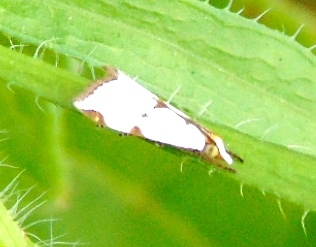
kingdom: Animalia
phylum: Arthropoda
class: Insecta
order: Lepidoptera
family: Crambidae
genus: Argyria
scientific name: Argyria
